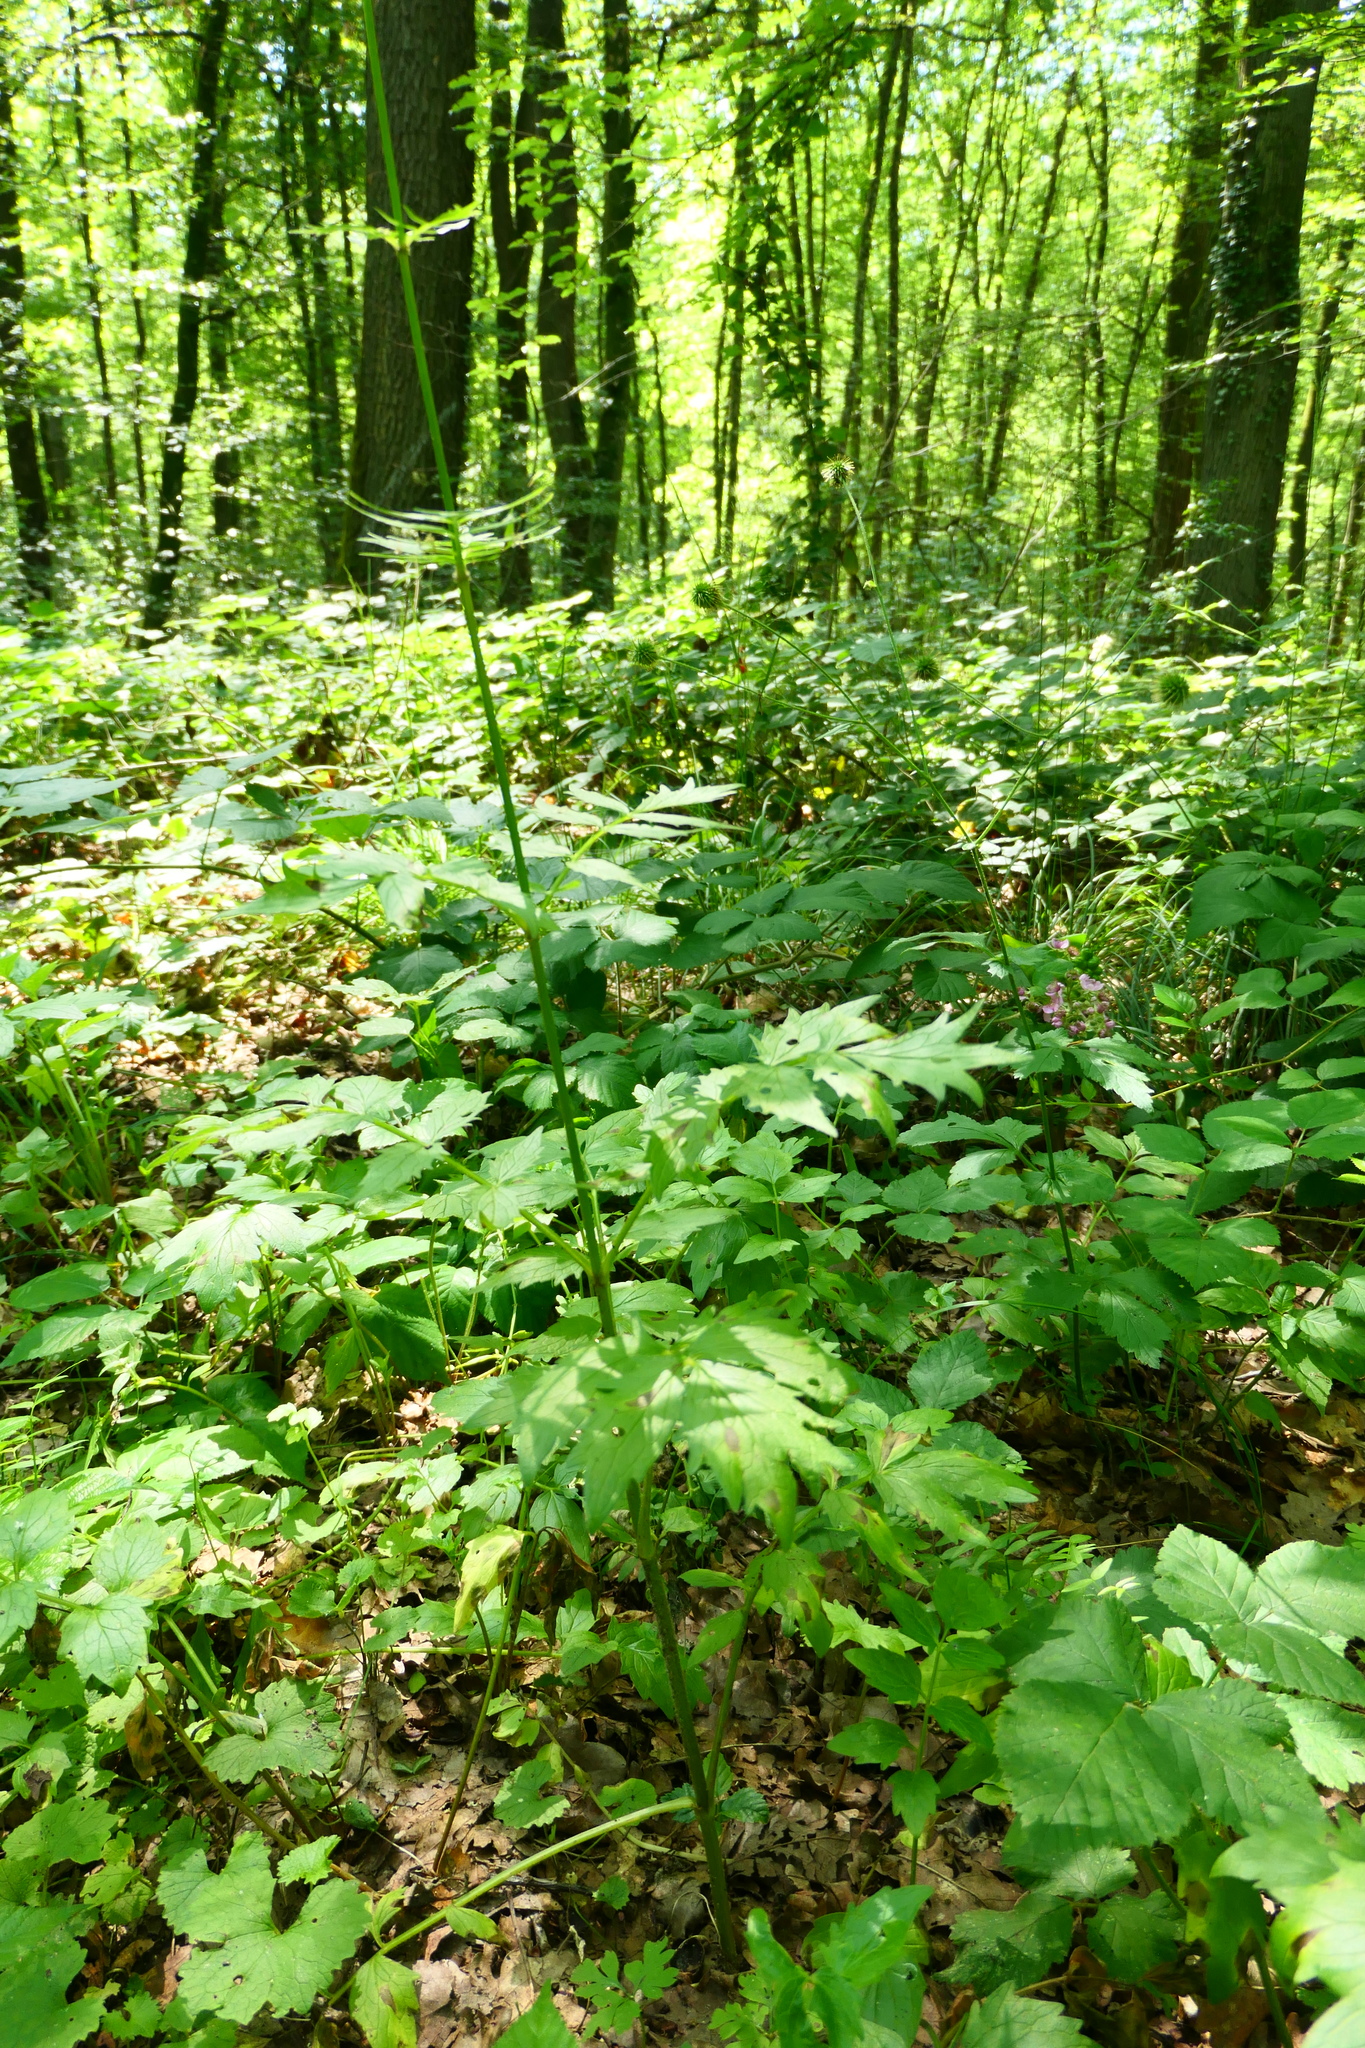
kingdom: Plantae
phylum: Tracheophyta
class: Magnoliopsida
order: Dipsacales
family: Caprifoliaceae
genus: Valeriana
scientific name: Valeriana officinalis
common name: Common valerian
